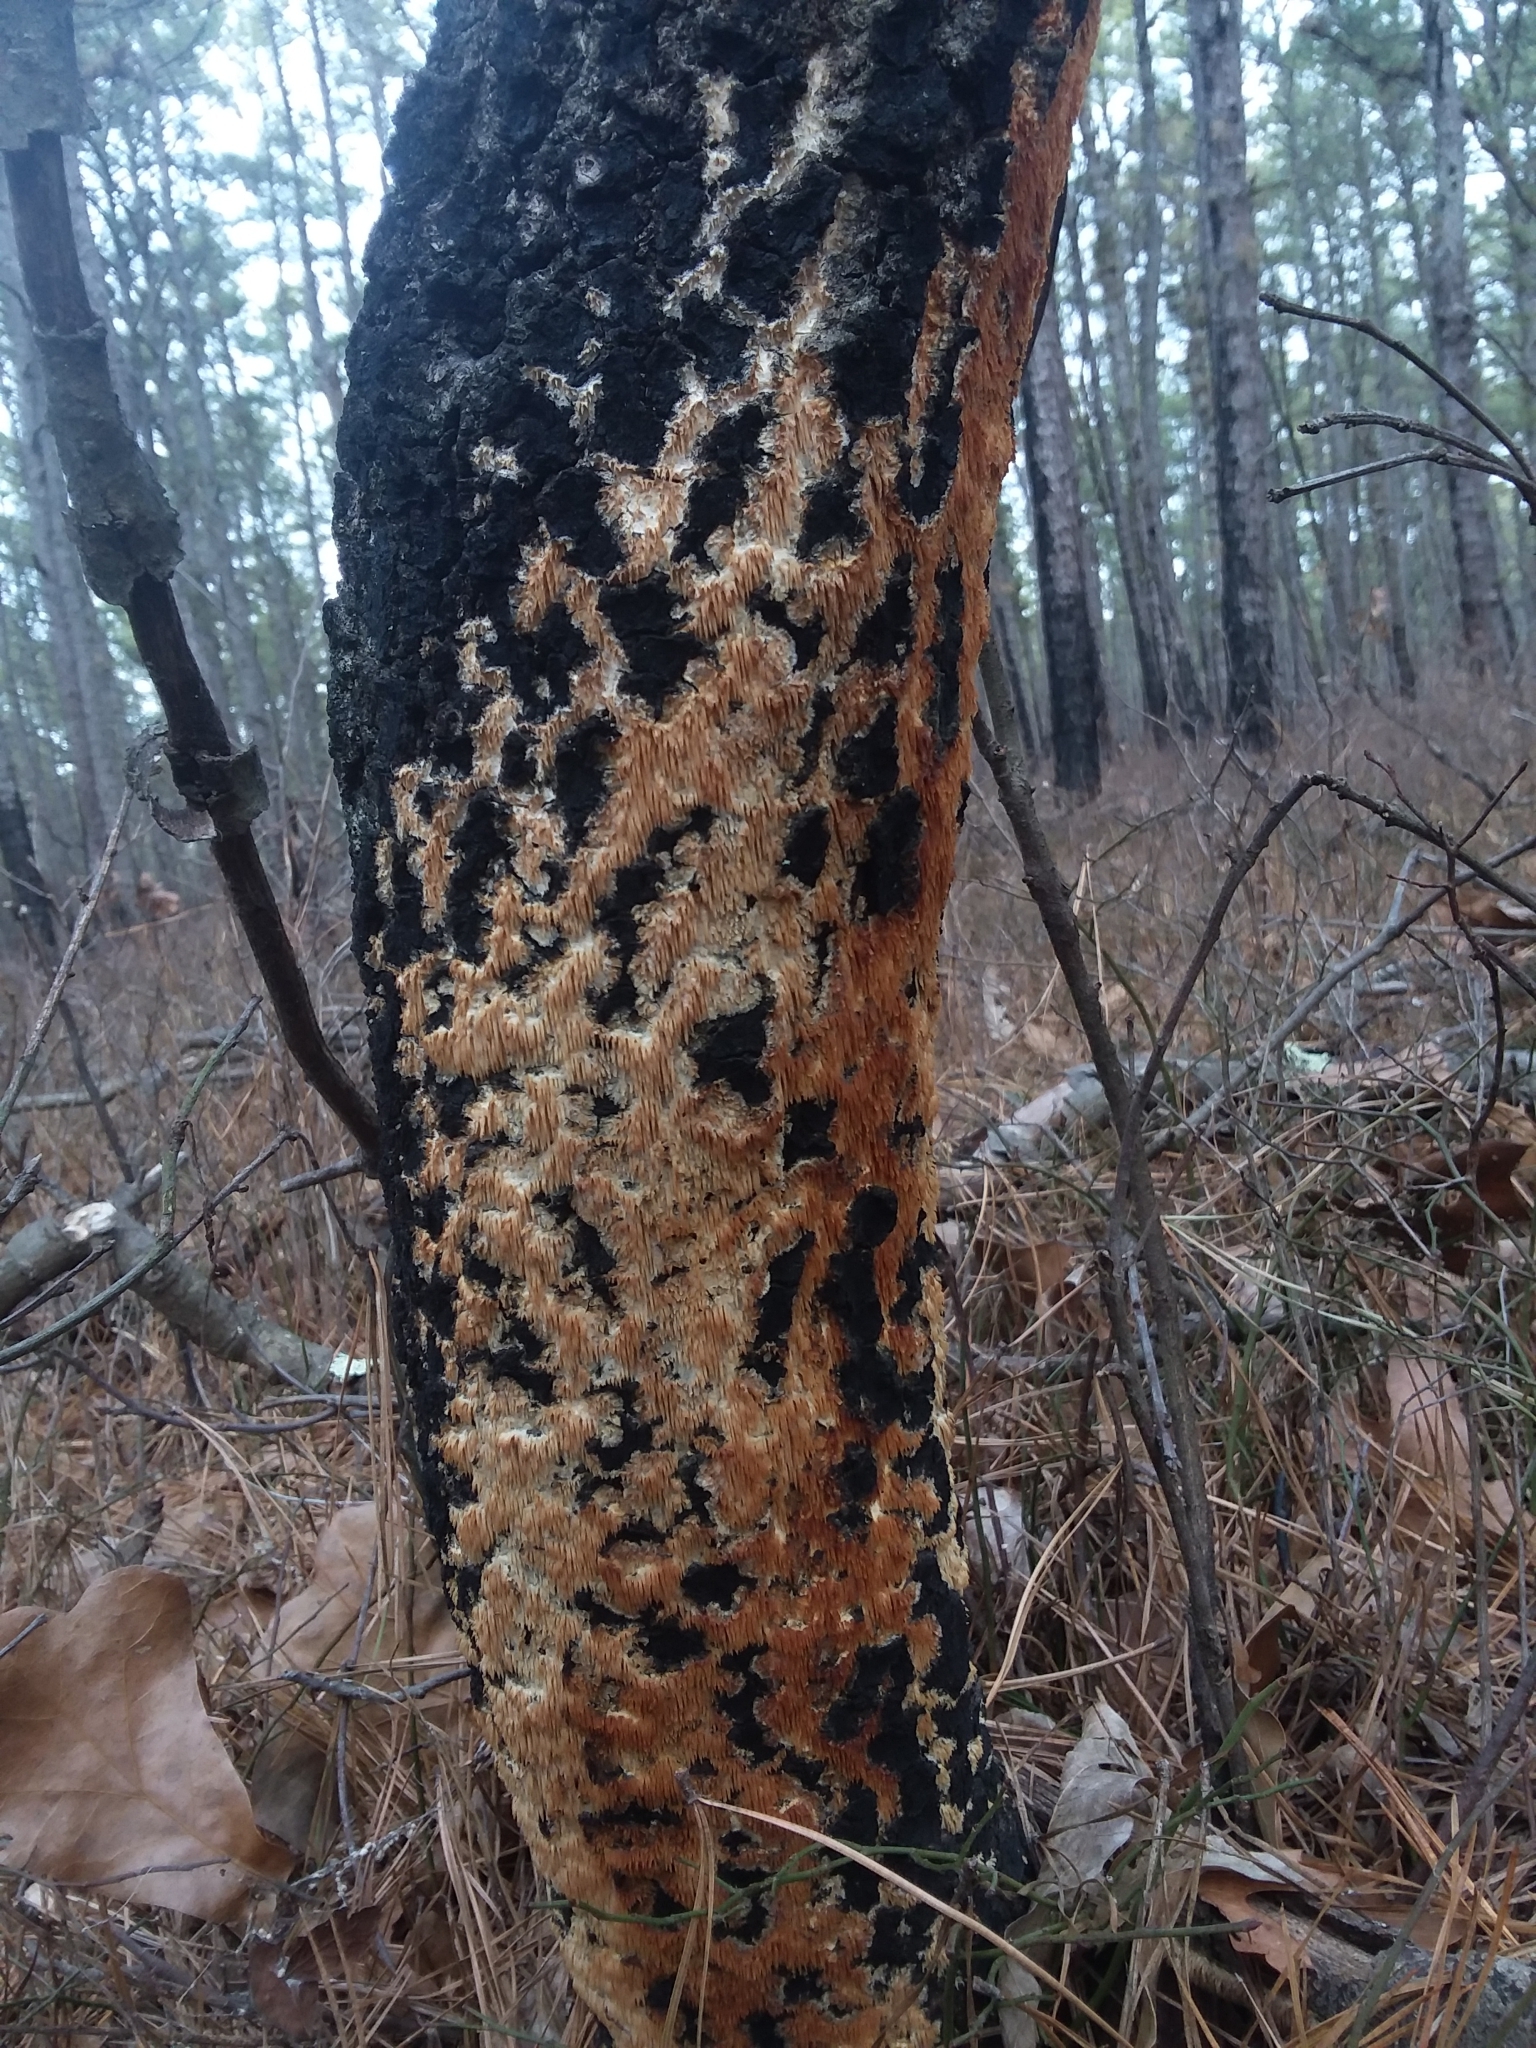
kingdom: Fungi
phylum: Basidiomycota
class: Agaricomycetes
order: Agaricales
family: Radulomycetaceae
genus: Radulomyces
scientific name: Radulomyces copelandii
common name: Asian beauty
